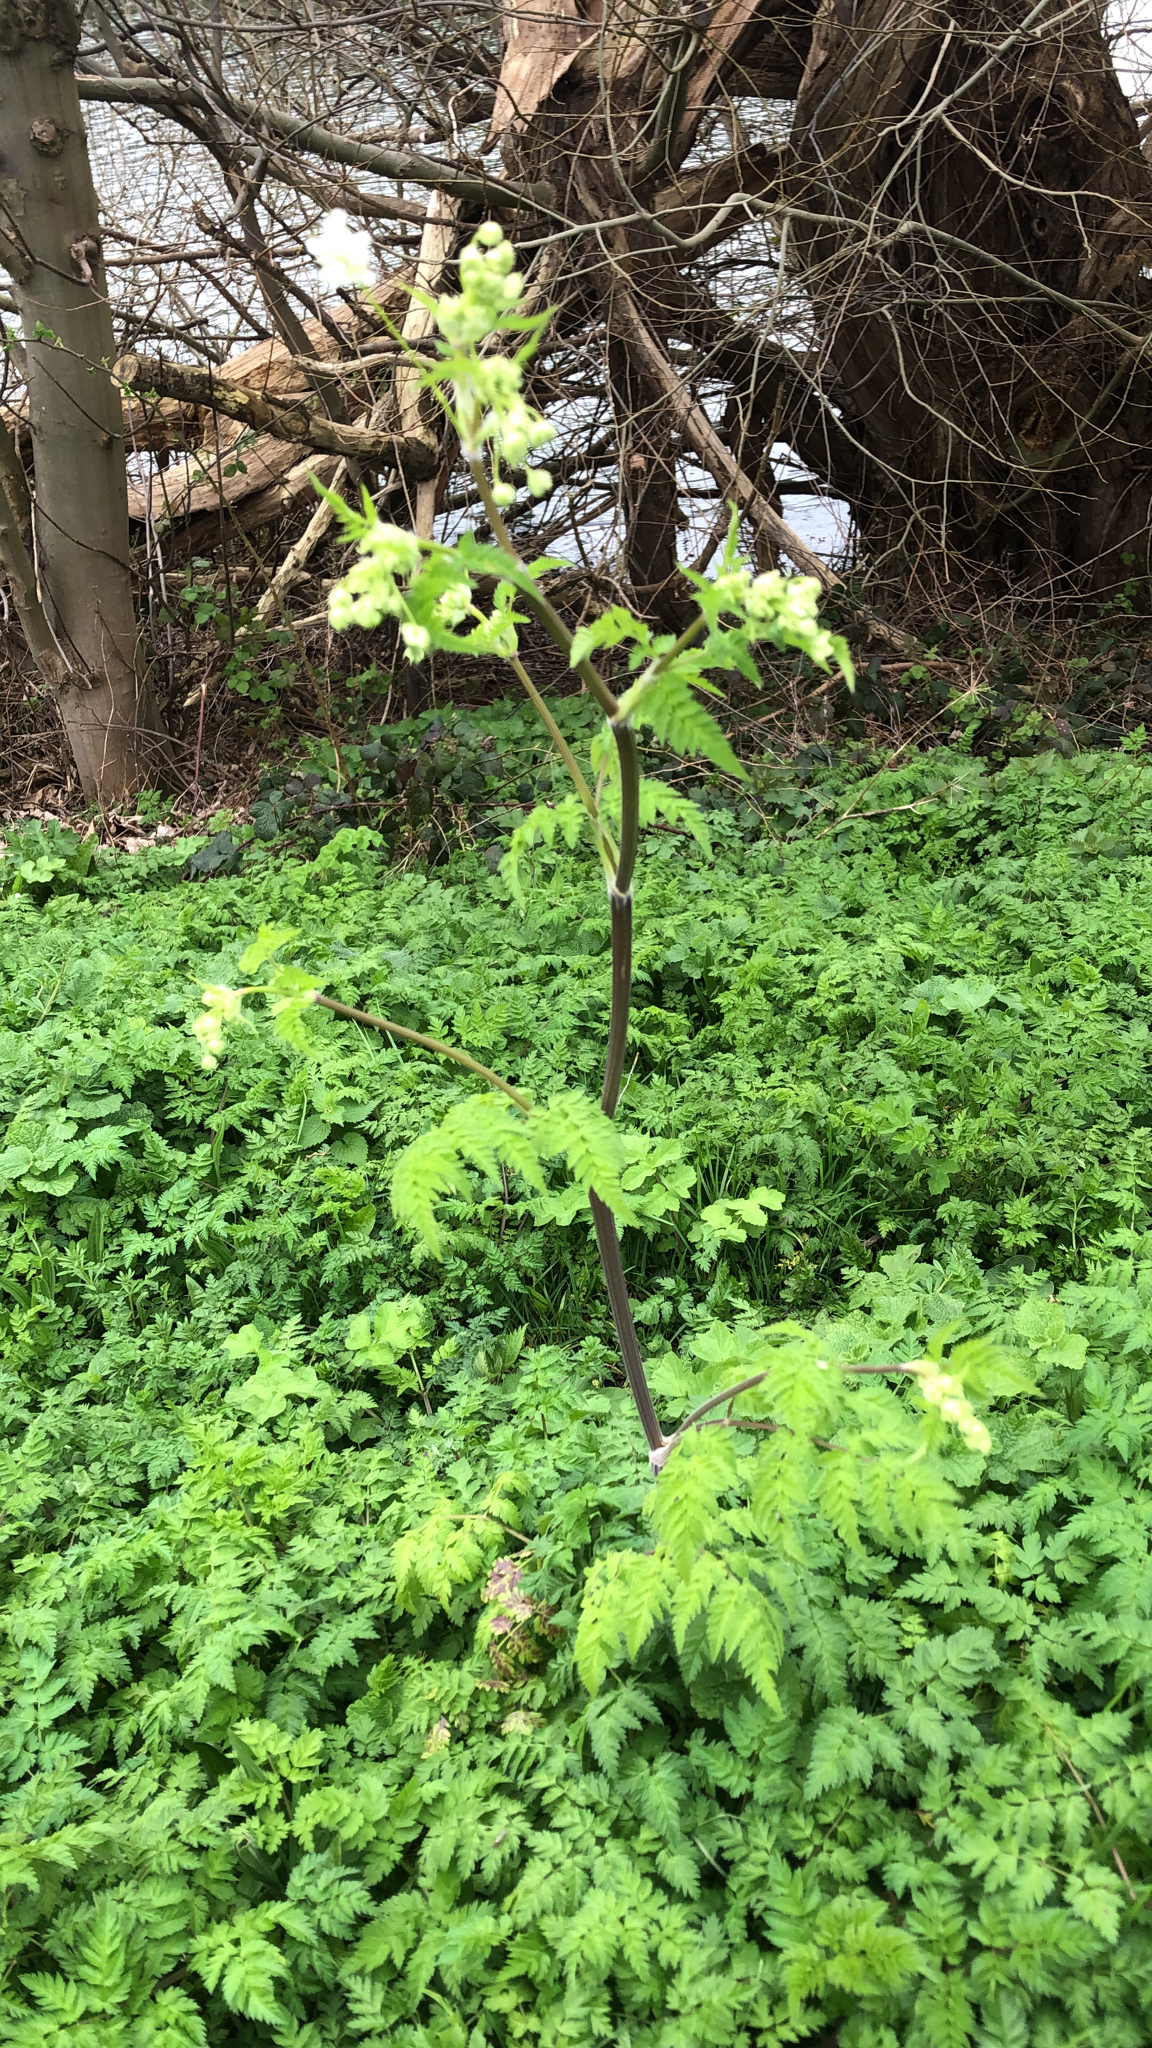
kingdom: Plantae
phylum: Tracheophyta
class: Magnoliopsida
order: Apiales
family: Apiaceae
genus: Anthriscus
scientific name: Anthriscus sylvestris
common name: Cow parsley
